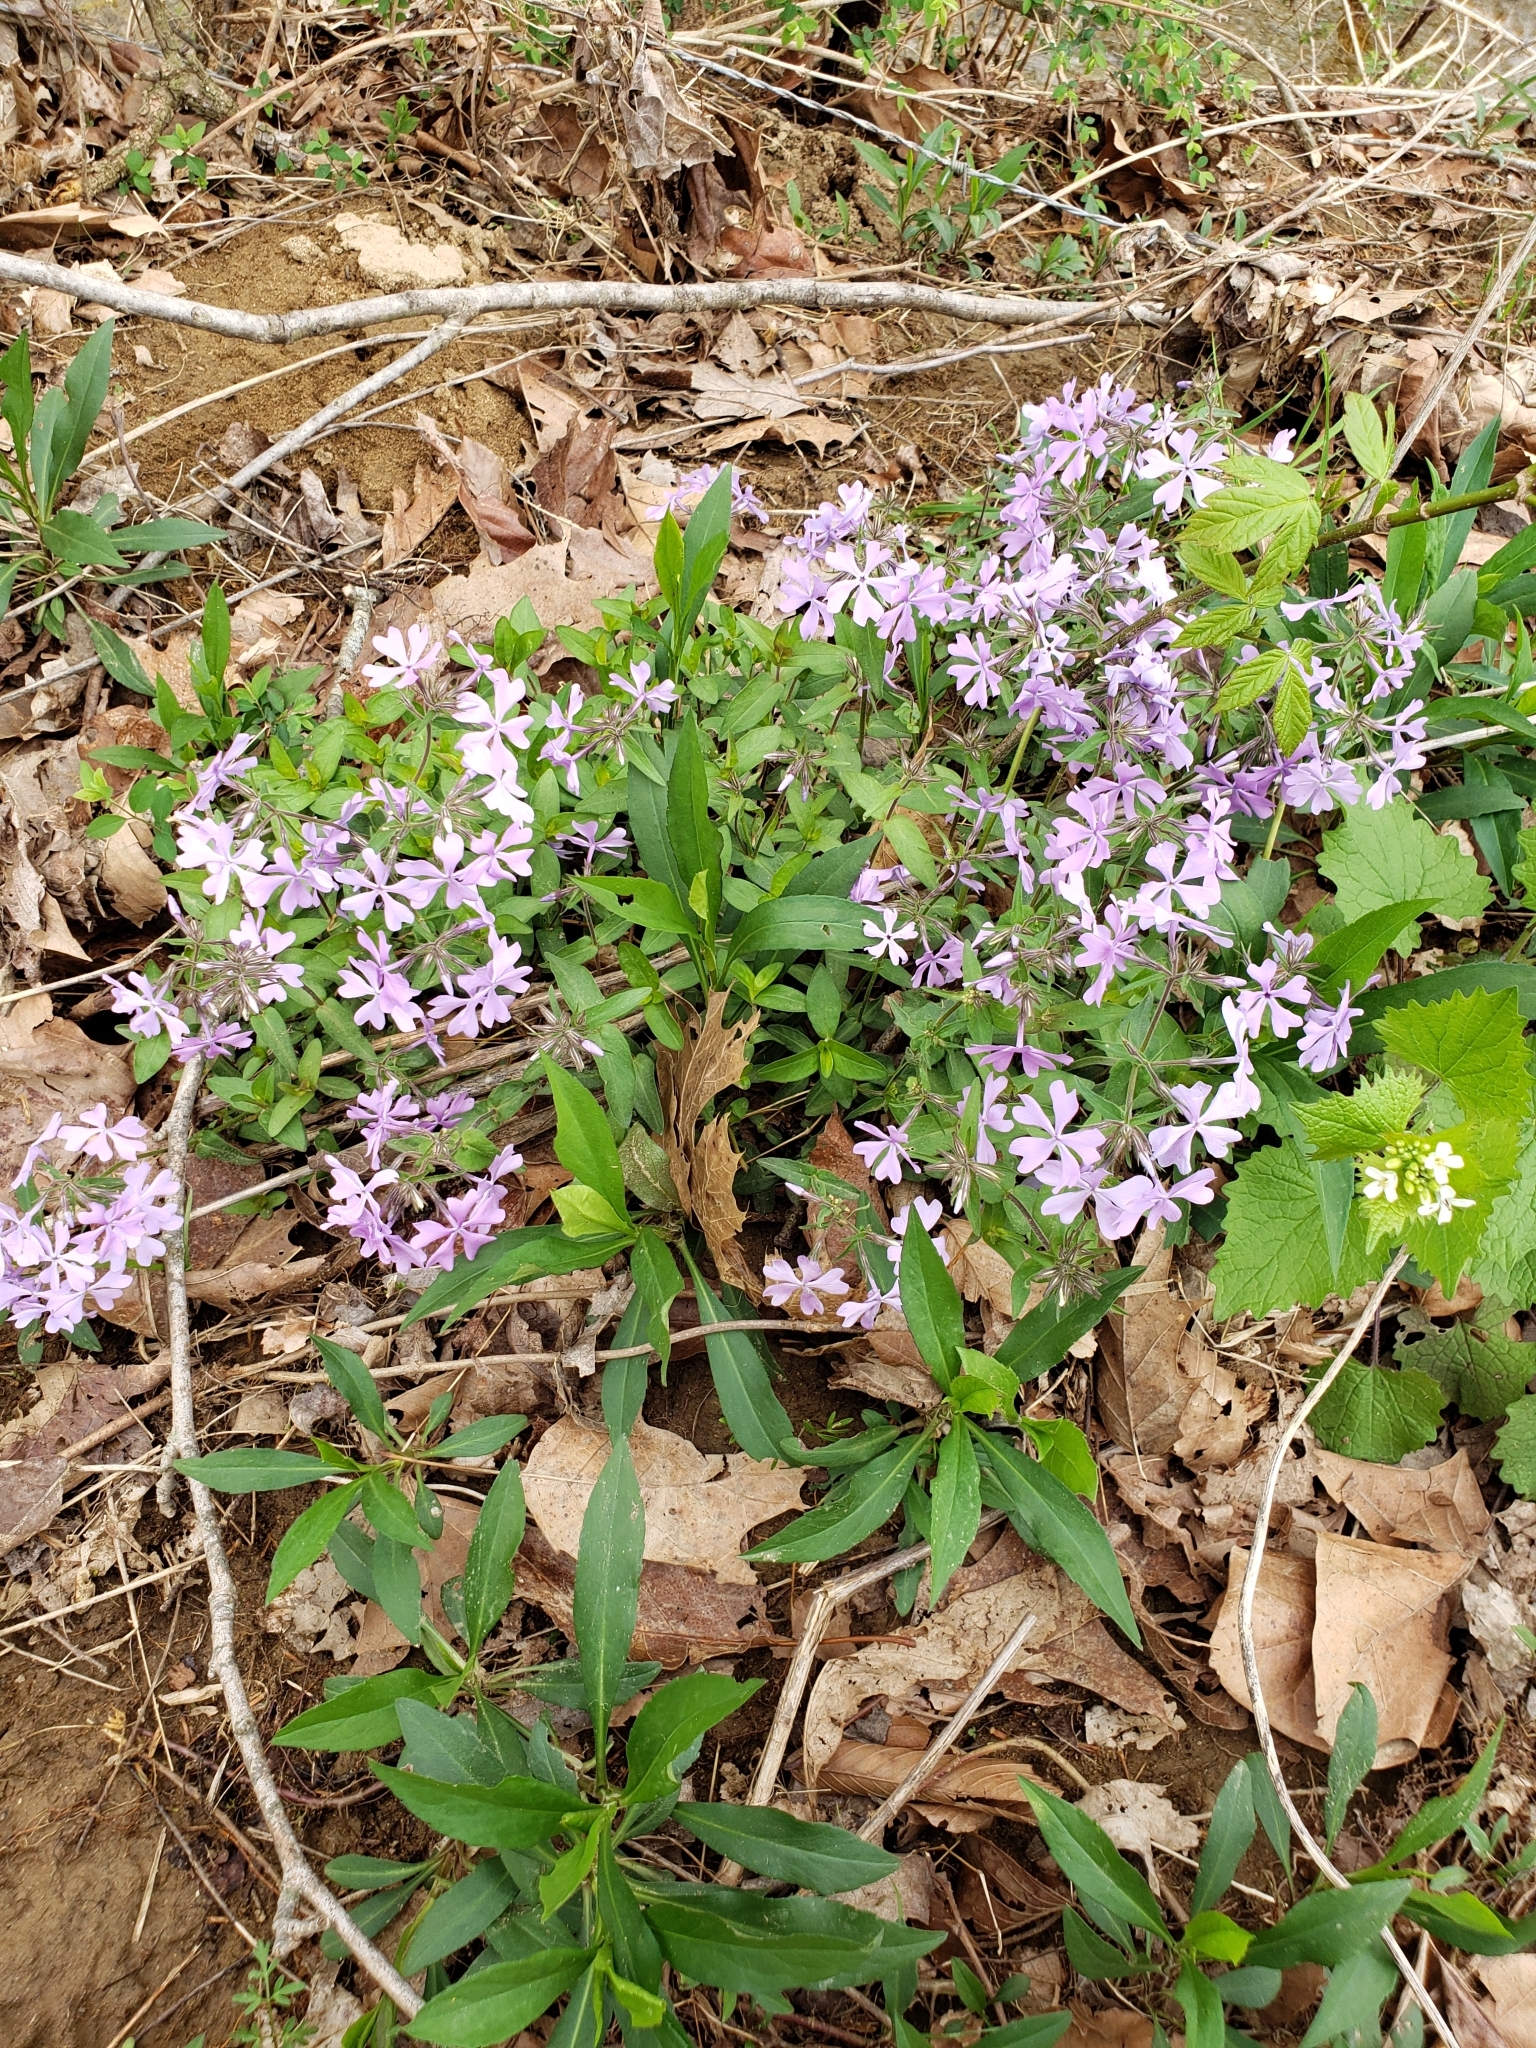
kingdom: Plantae
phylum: Tracheophyta
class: Magnoliopsida
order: Ericales
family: Polemoniaceae
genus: Phlox
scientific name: Phlox divaricata
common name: Blue phlox
